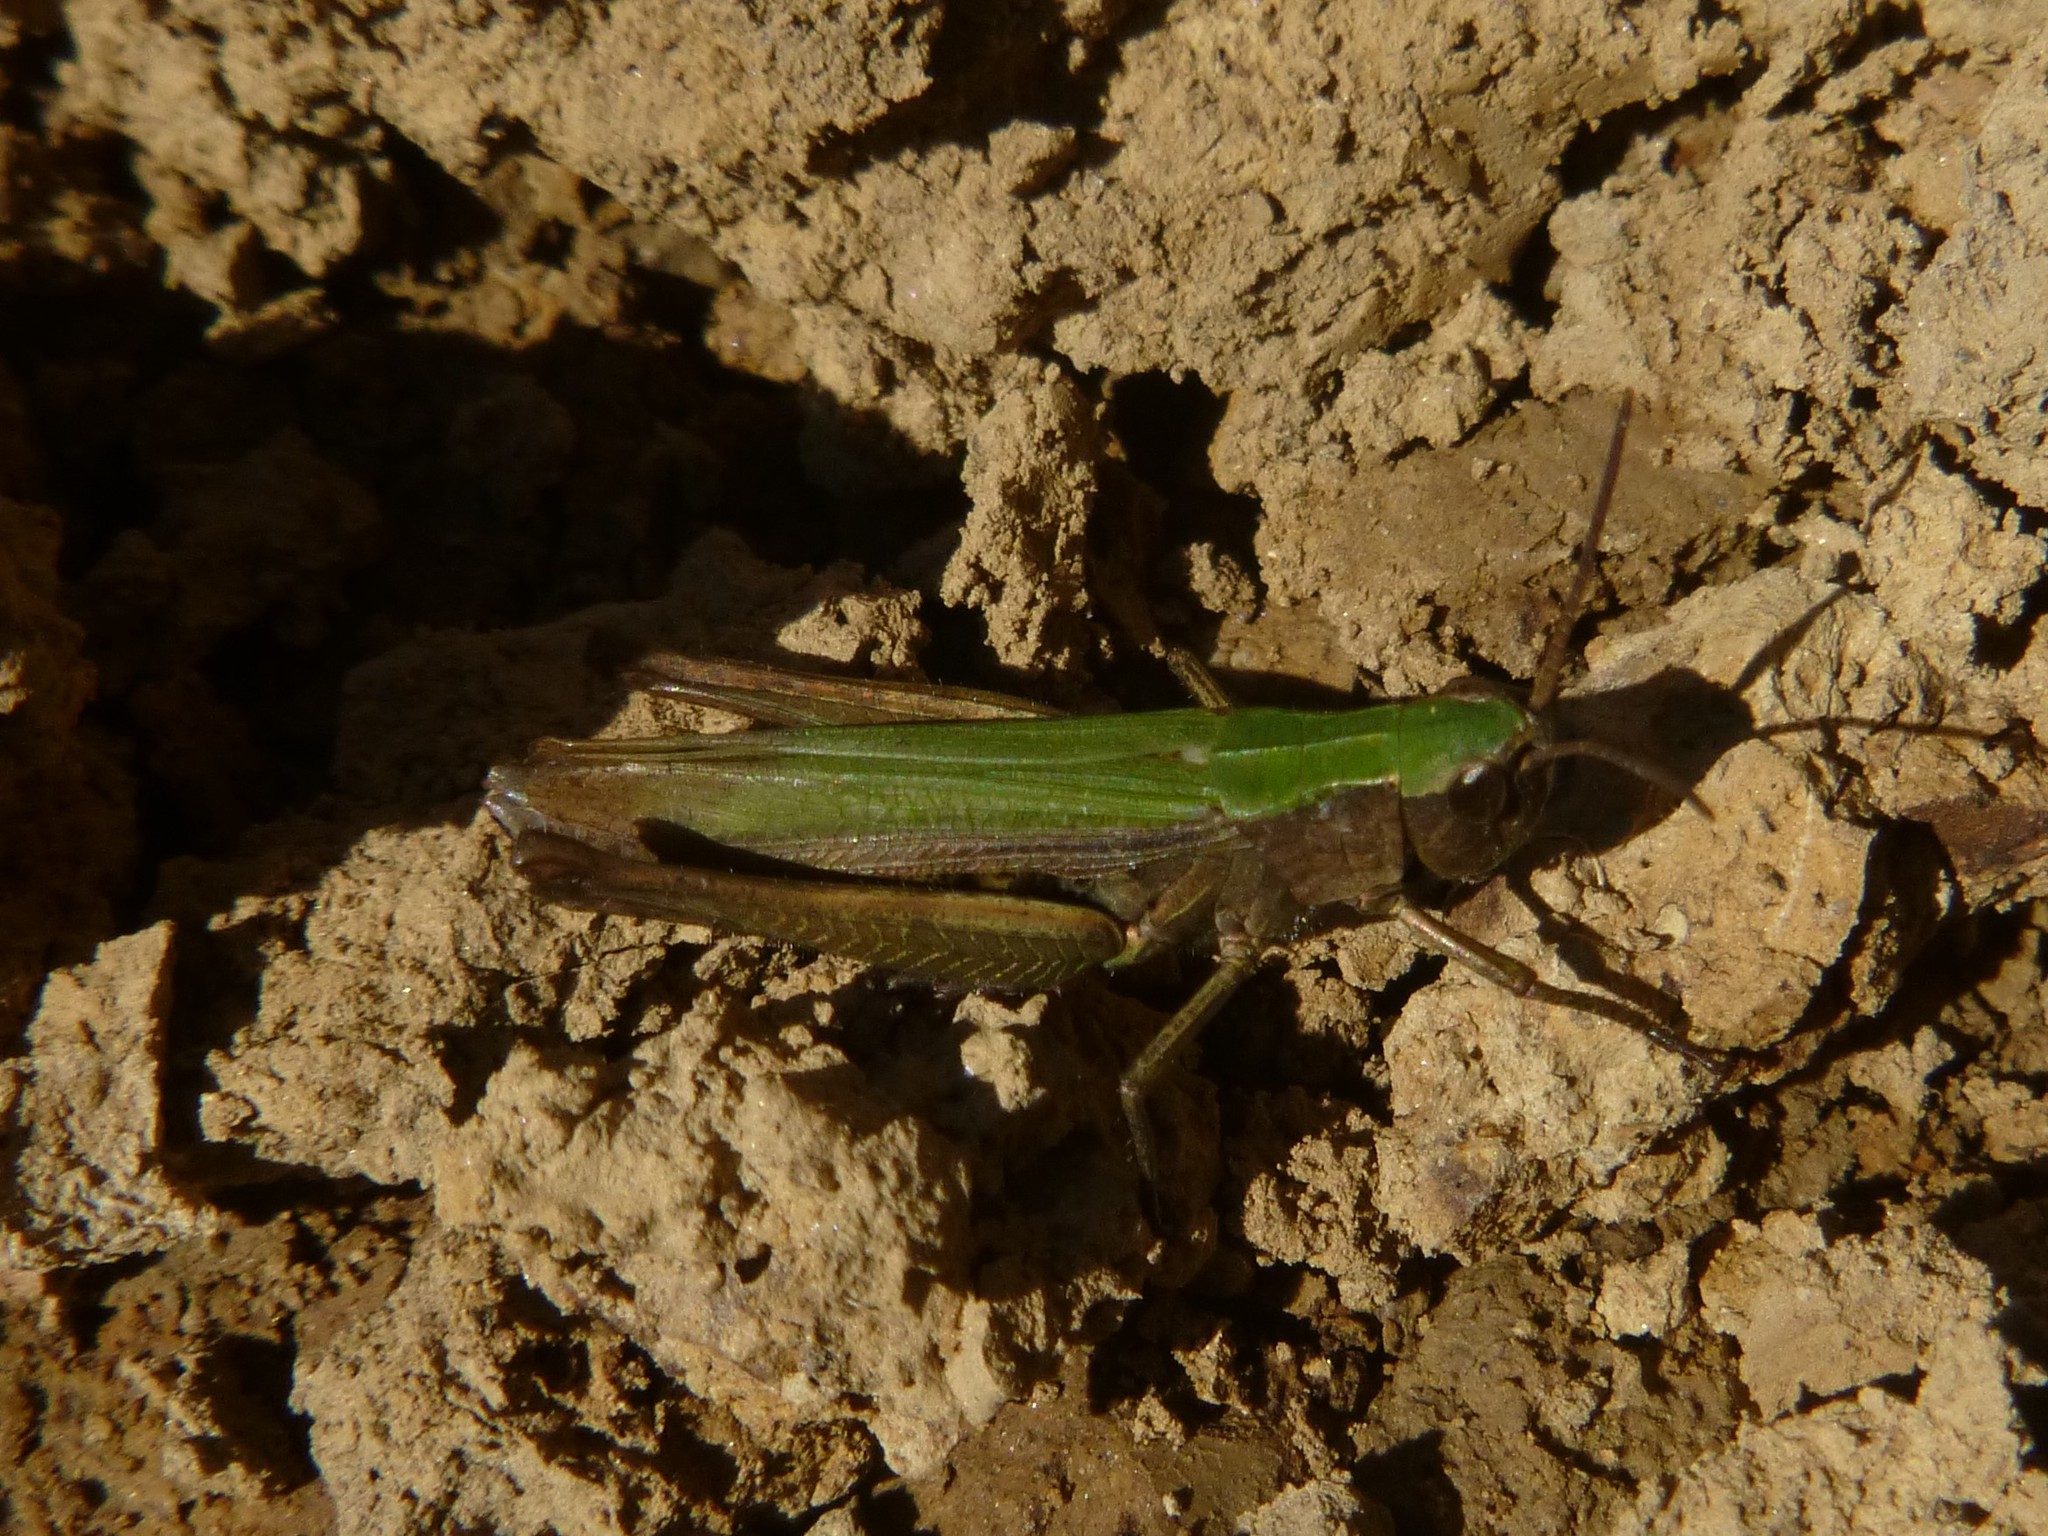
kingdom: Animalia
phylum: Arthropoda
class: Insecta
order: Orthoptera
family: Acrididae
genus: Chorthippus
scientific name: Chorthippus dorsatus
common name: Steppe grasshopper
